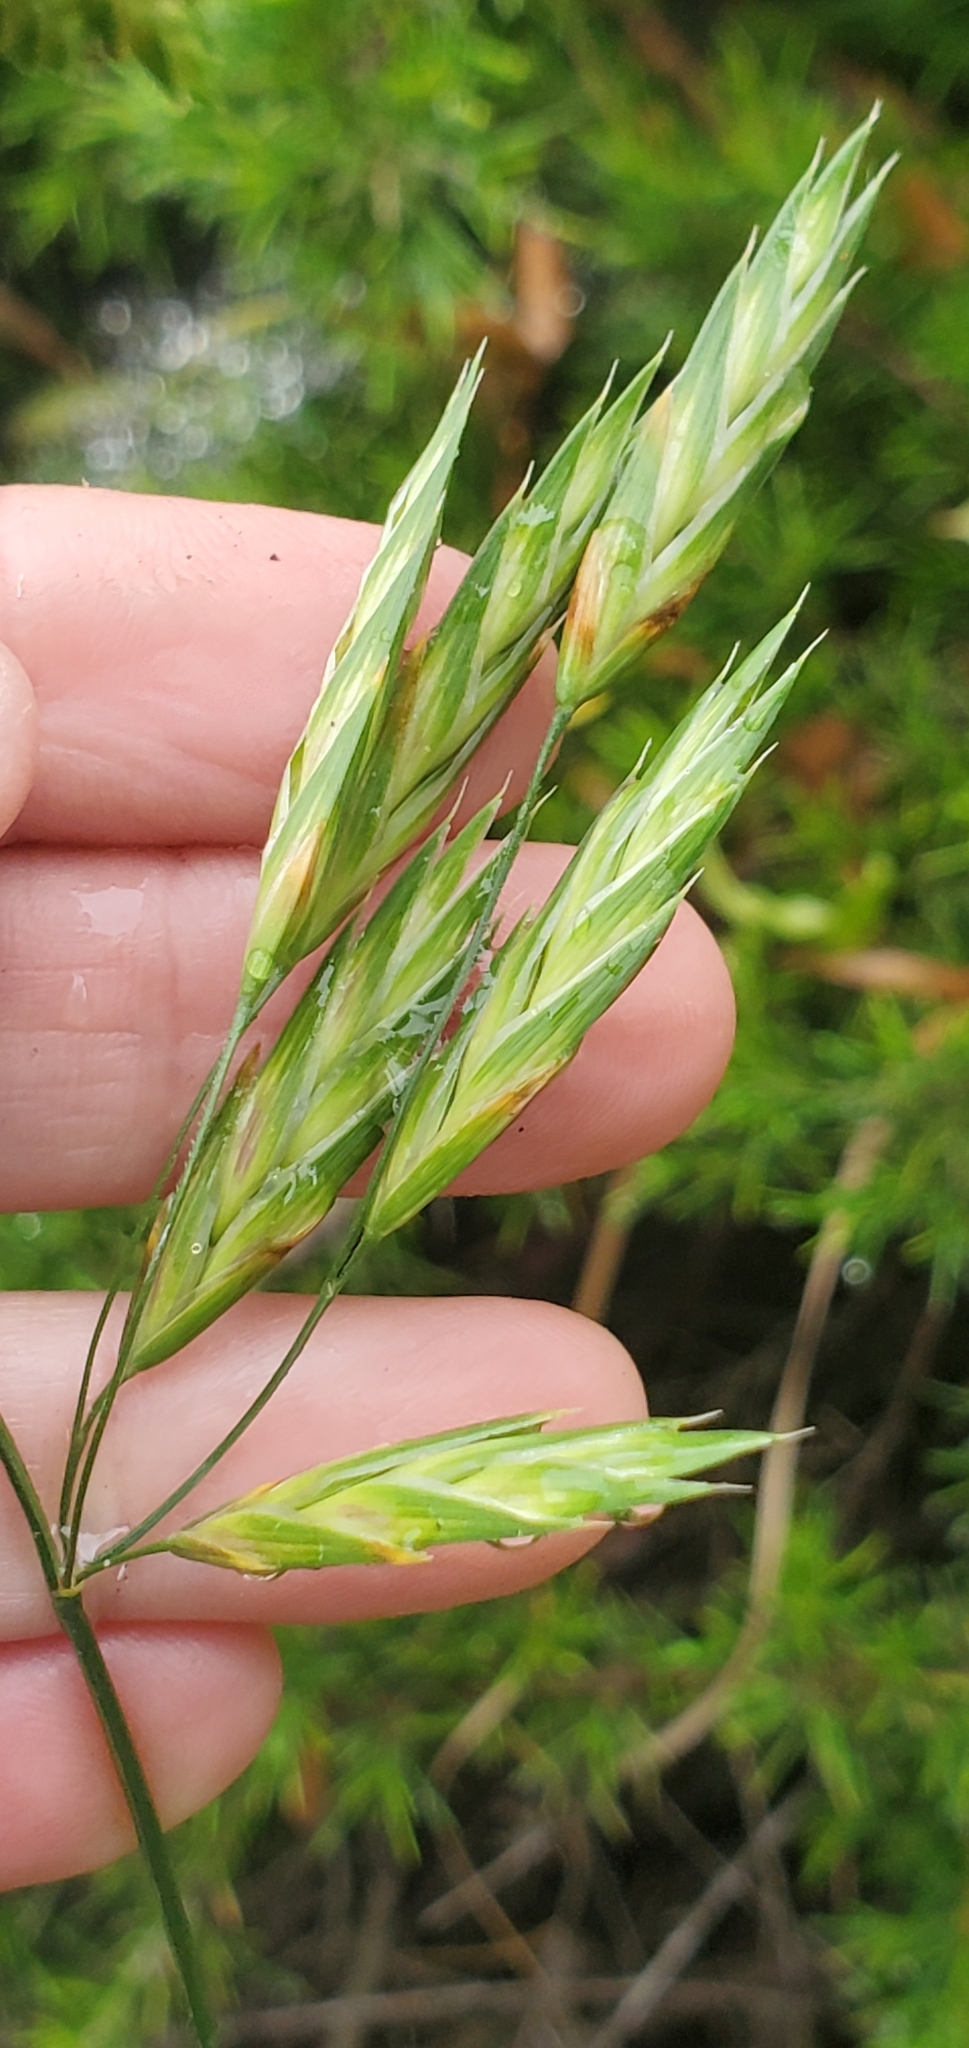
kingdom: Plantae
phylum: Tracheophyta
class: Liliopsida
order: Poales
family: Poaceae
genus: Bromus
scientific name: Bromus catharticus
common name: Rescuegrass
